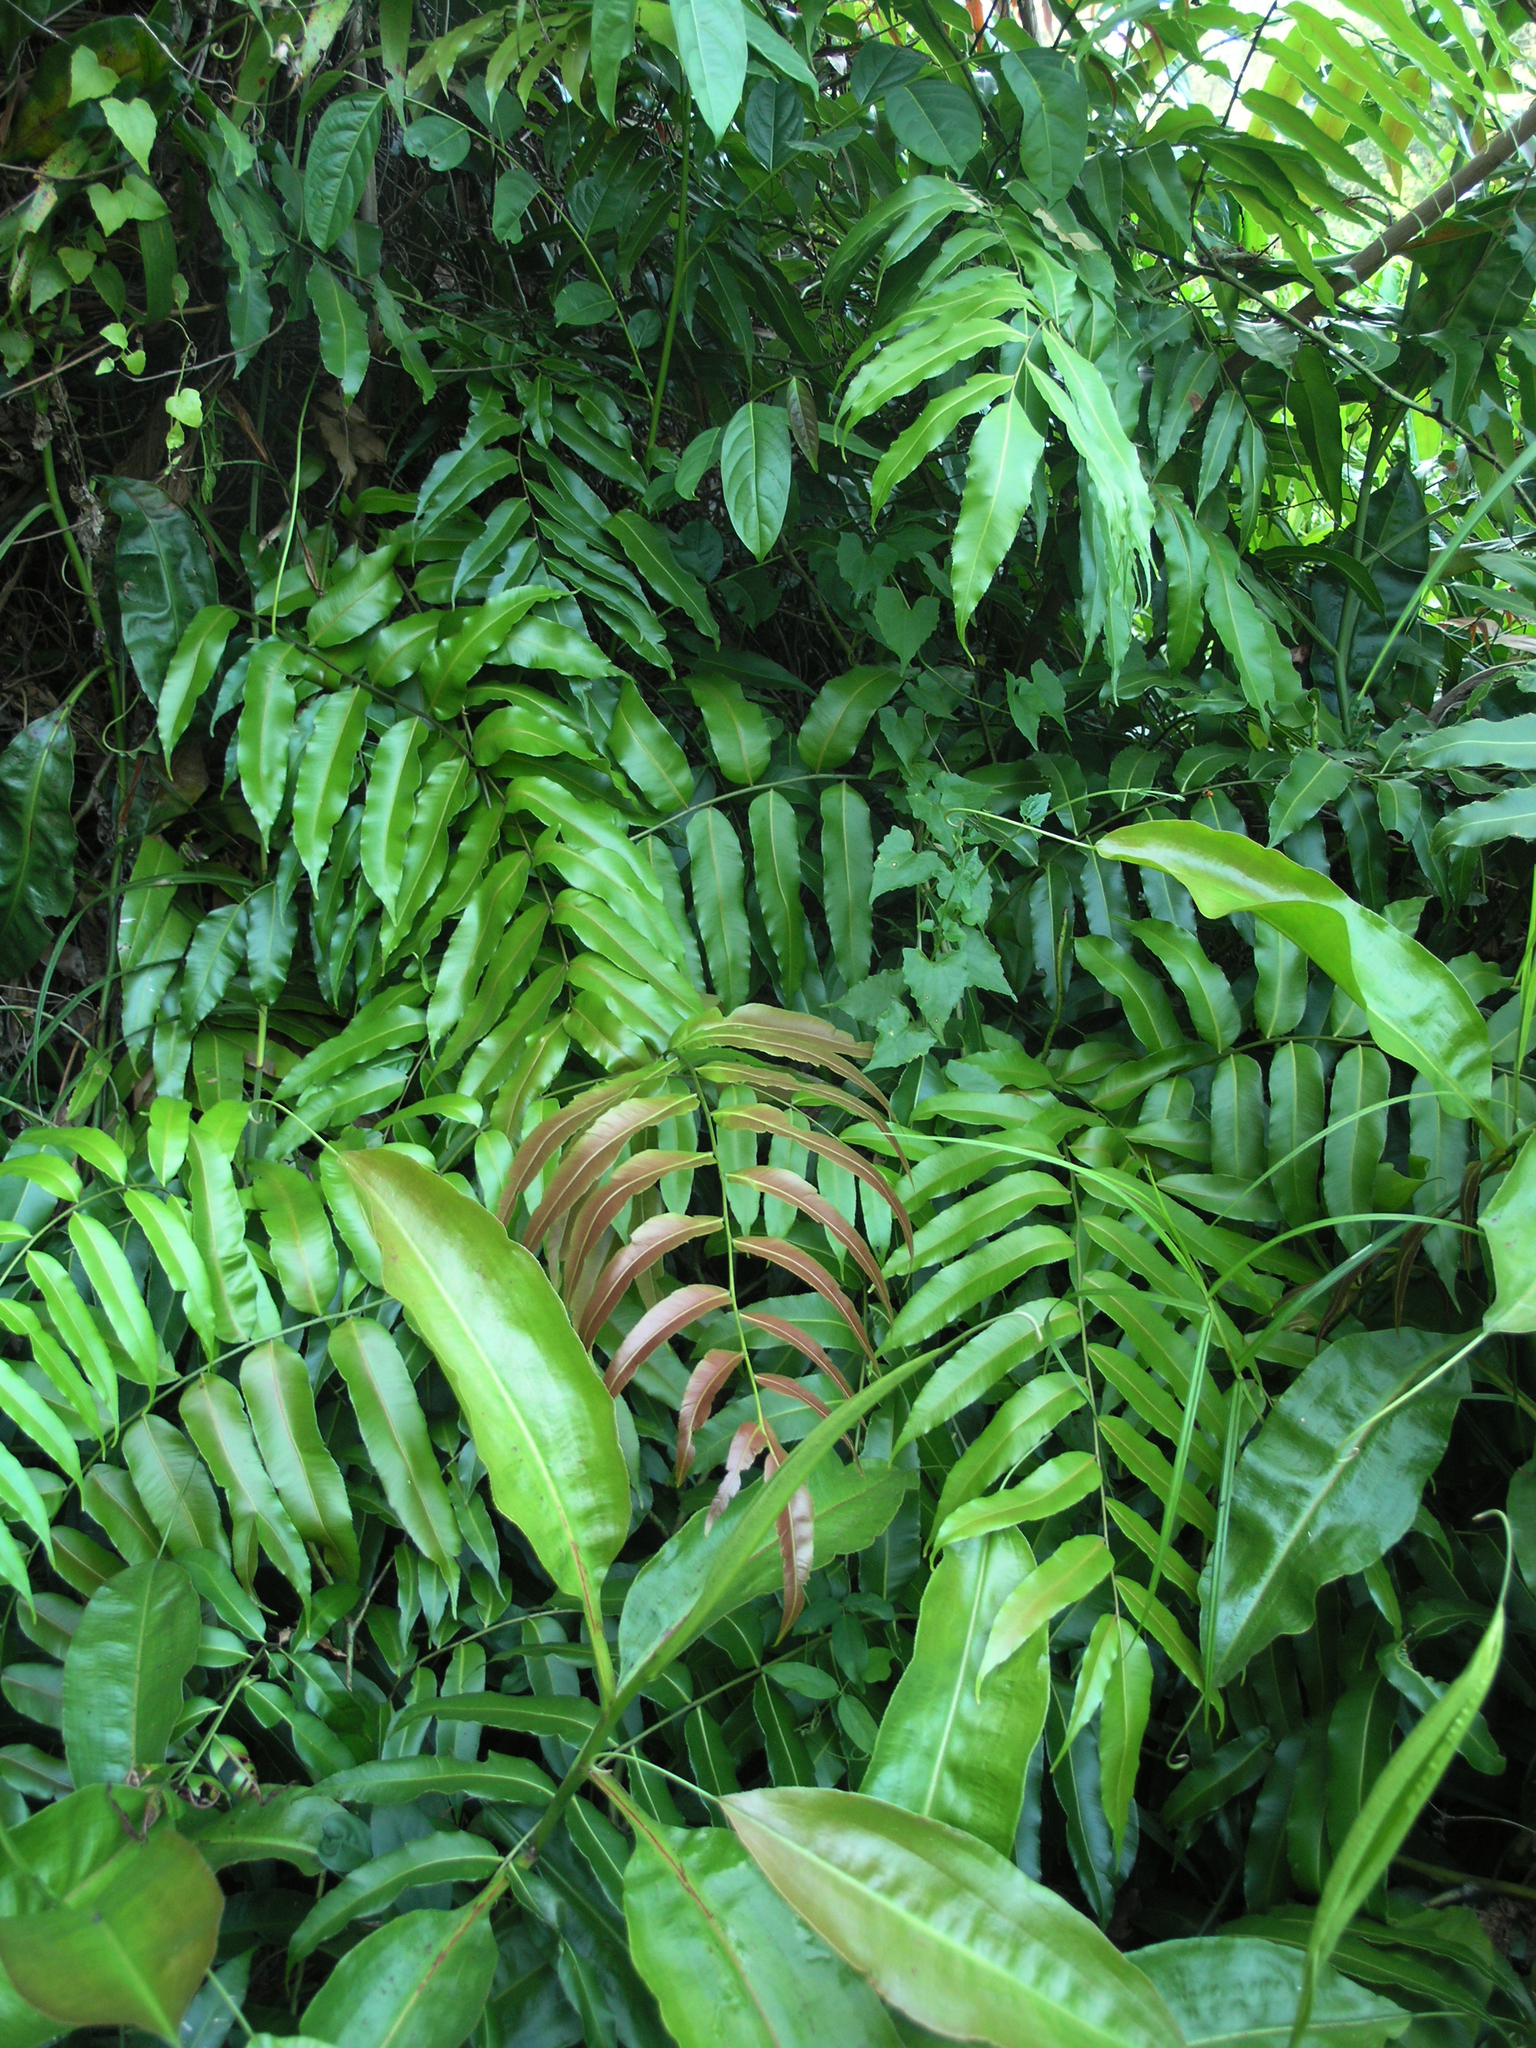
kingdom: Plantae
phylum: Tracheophyta
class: Polypodiopsida
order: Polypodiales
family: Blechnaceae
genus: Stenochlaena
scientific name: Stenochlaena palustris
